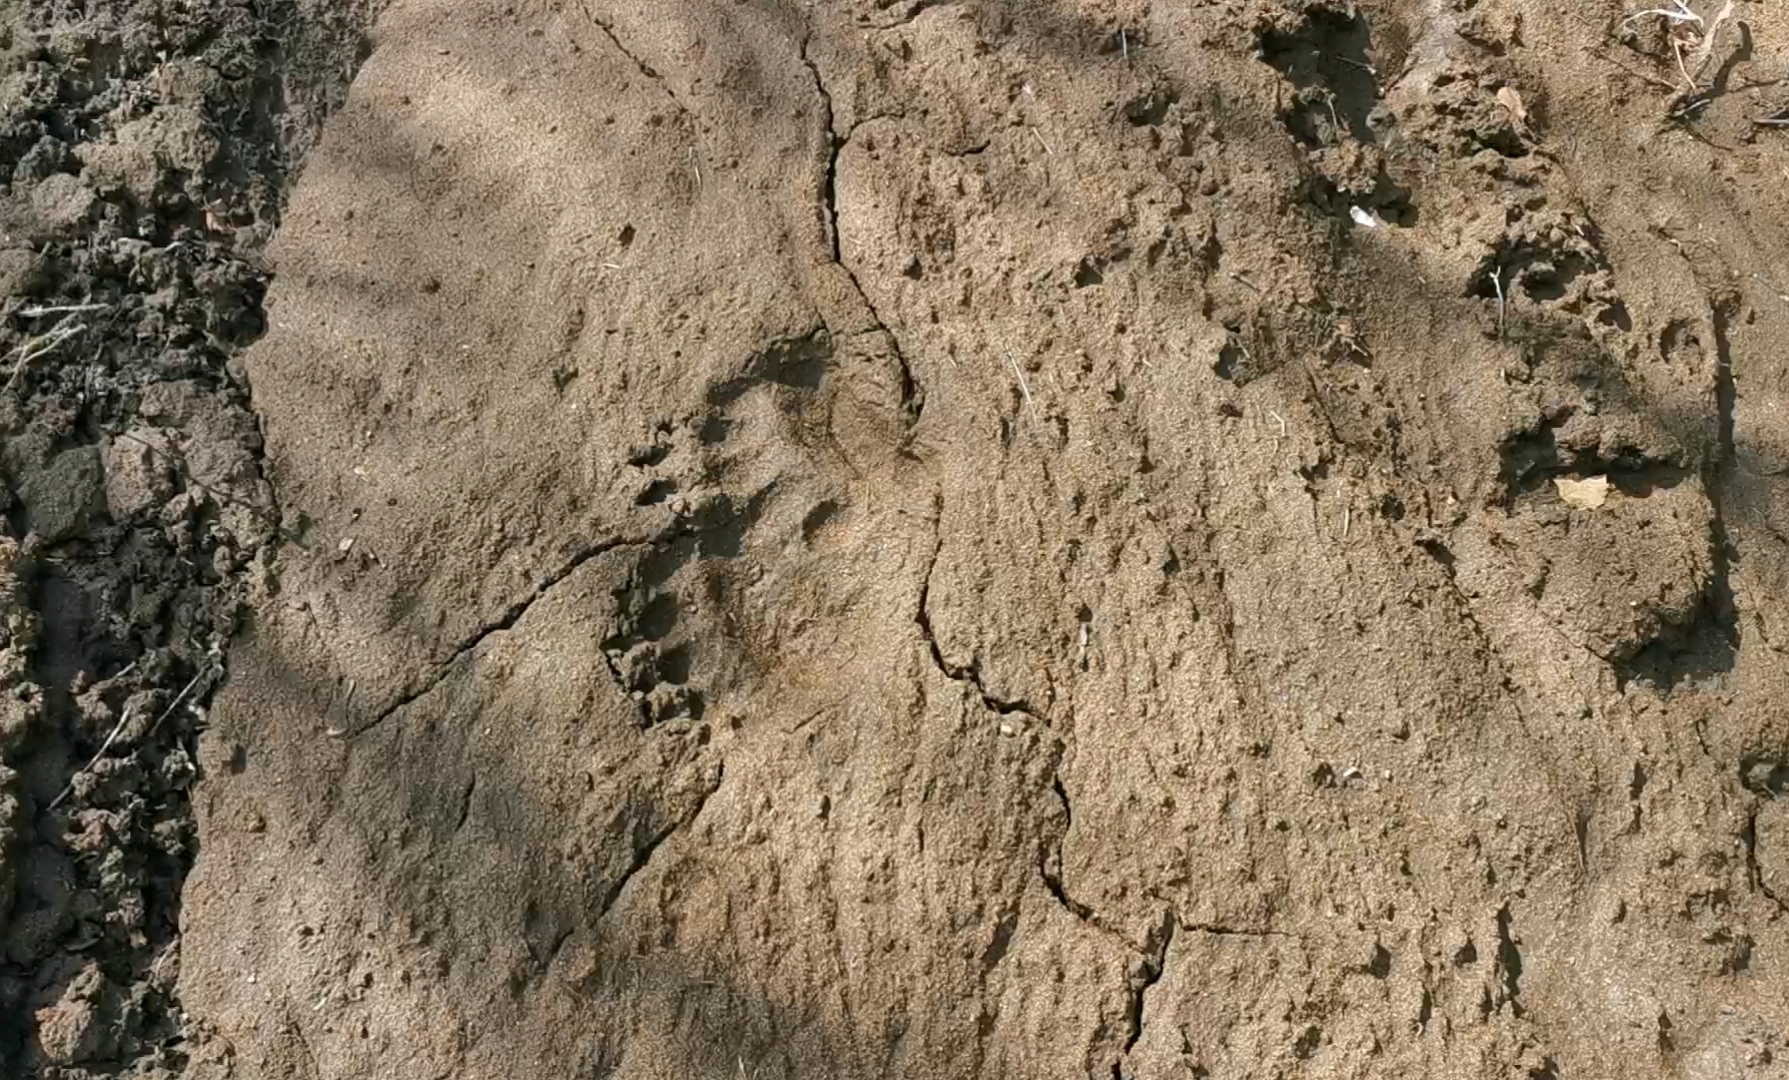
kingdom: Animalia
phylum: Chordata
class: Mammalia
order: Carnivora
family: Ursidae
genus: Ursus
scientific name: Ursus arctos
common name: Brown bear
